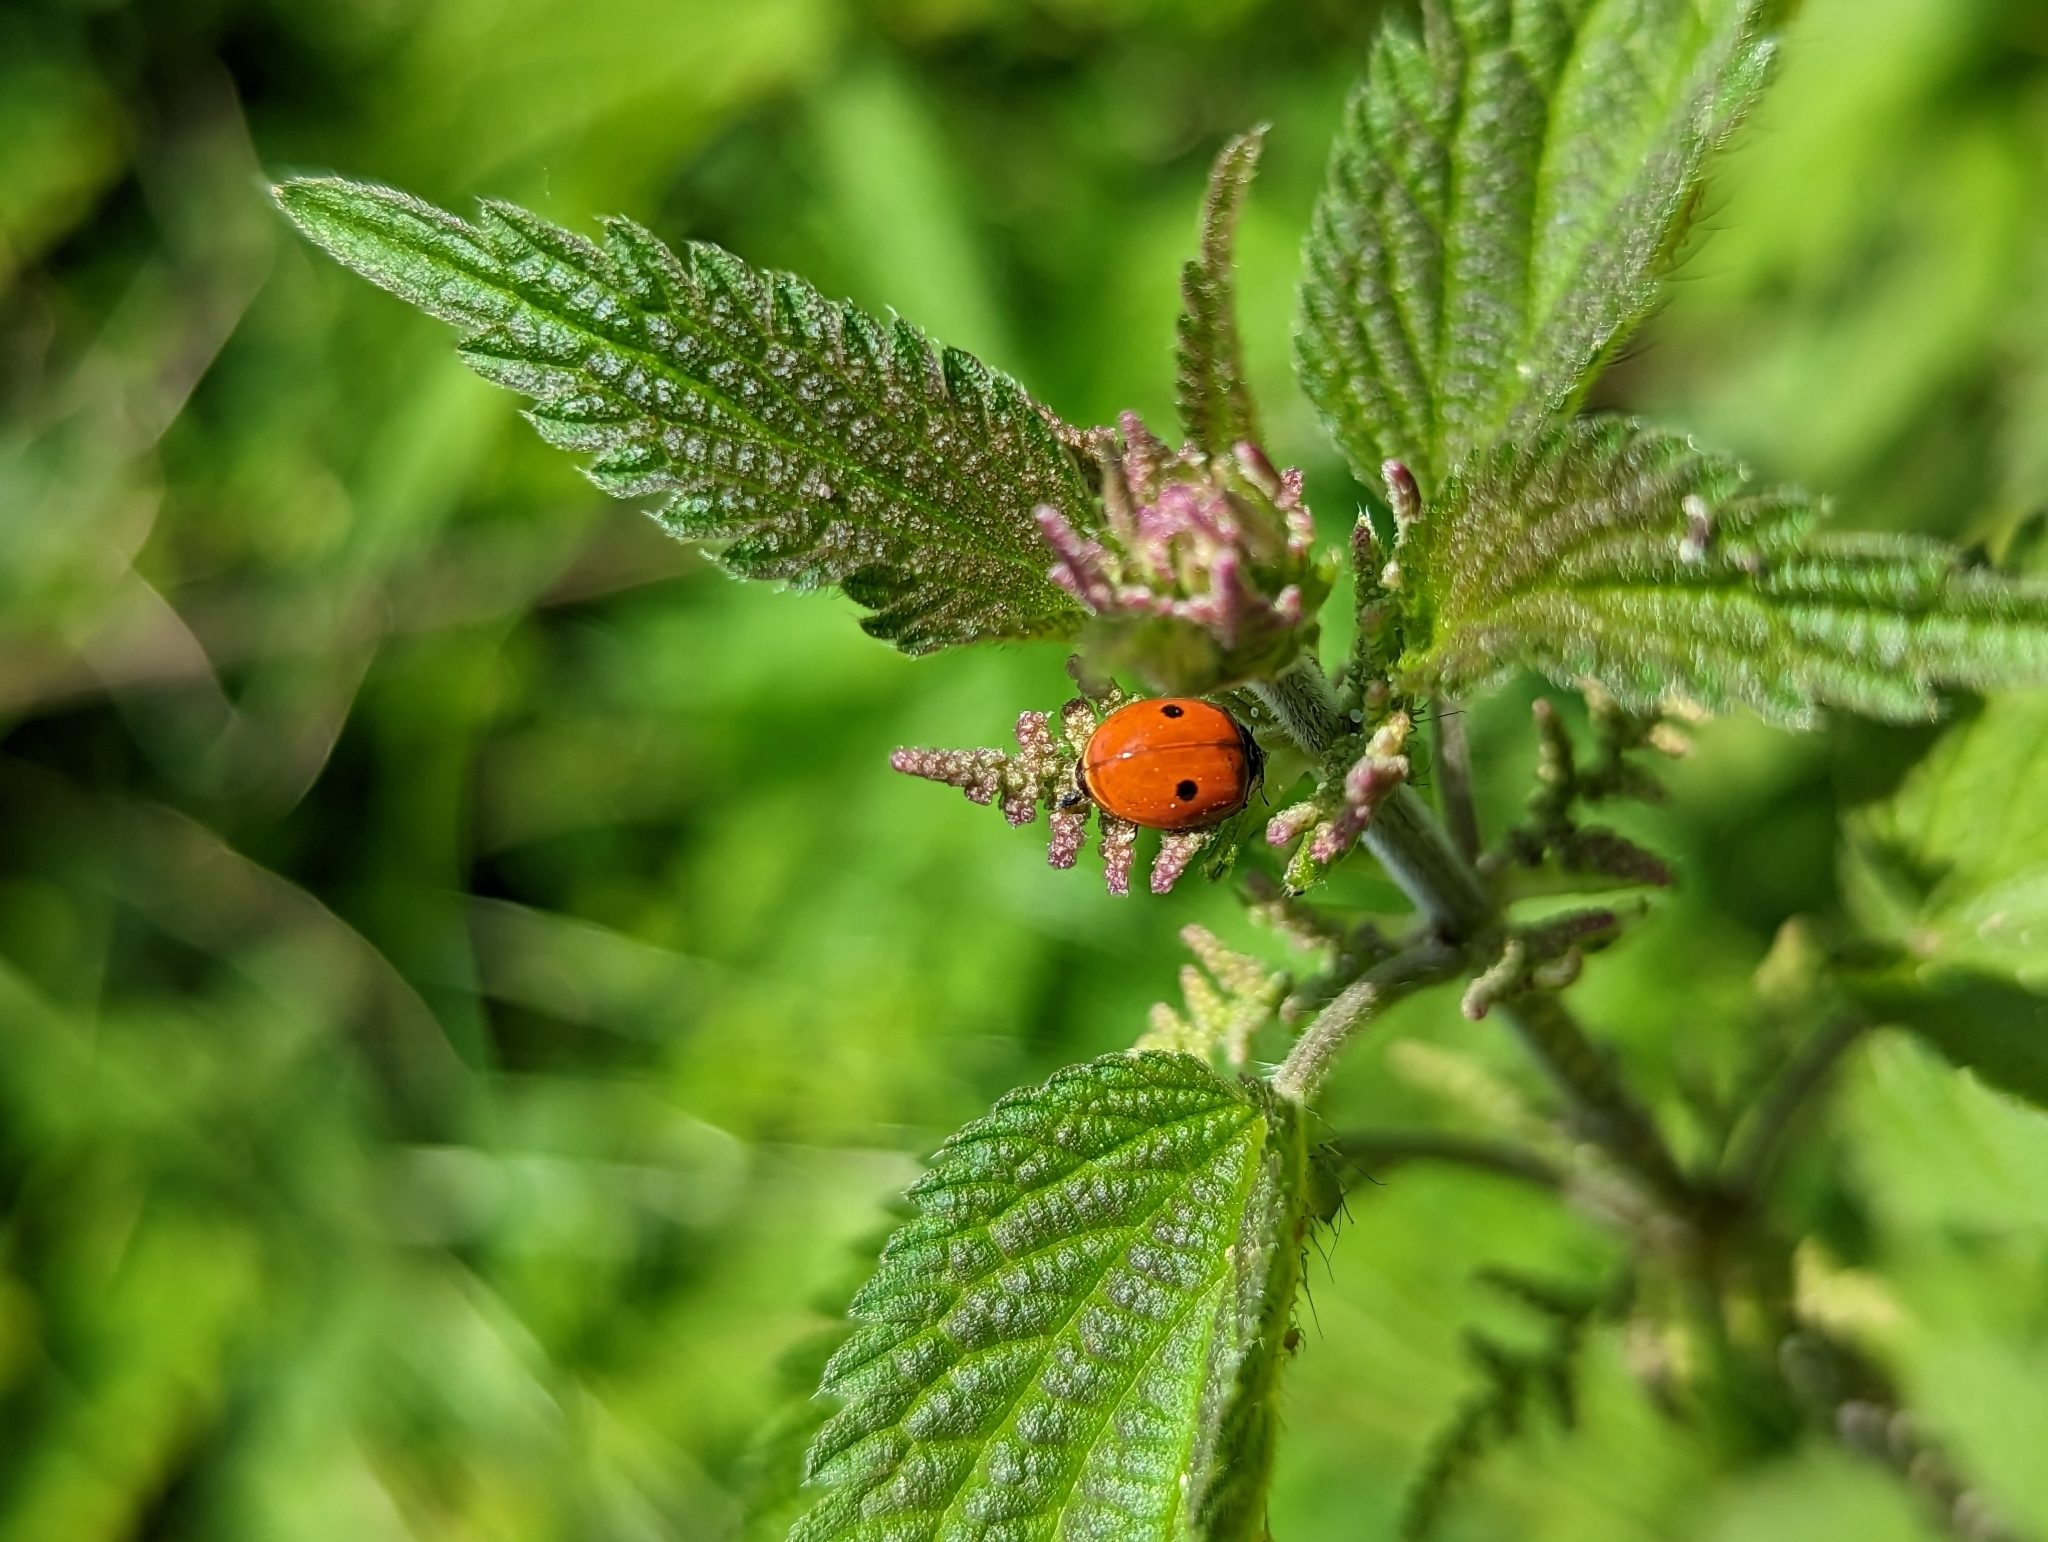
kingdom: Animalia
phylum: Arthropoda
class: Insecta
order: Coleoptera
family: Coccinellidae
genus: Adalia
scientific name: Adalia bipunctata
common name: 2-spot ladybird
